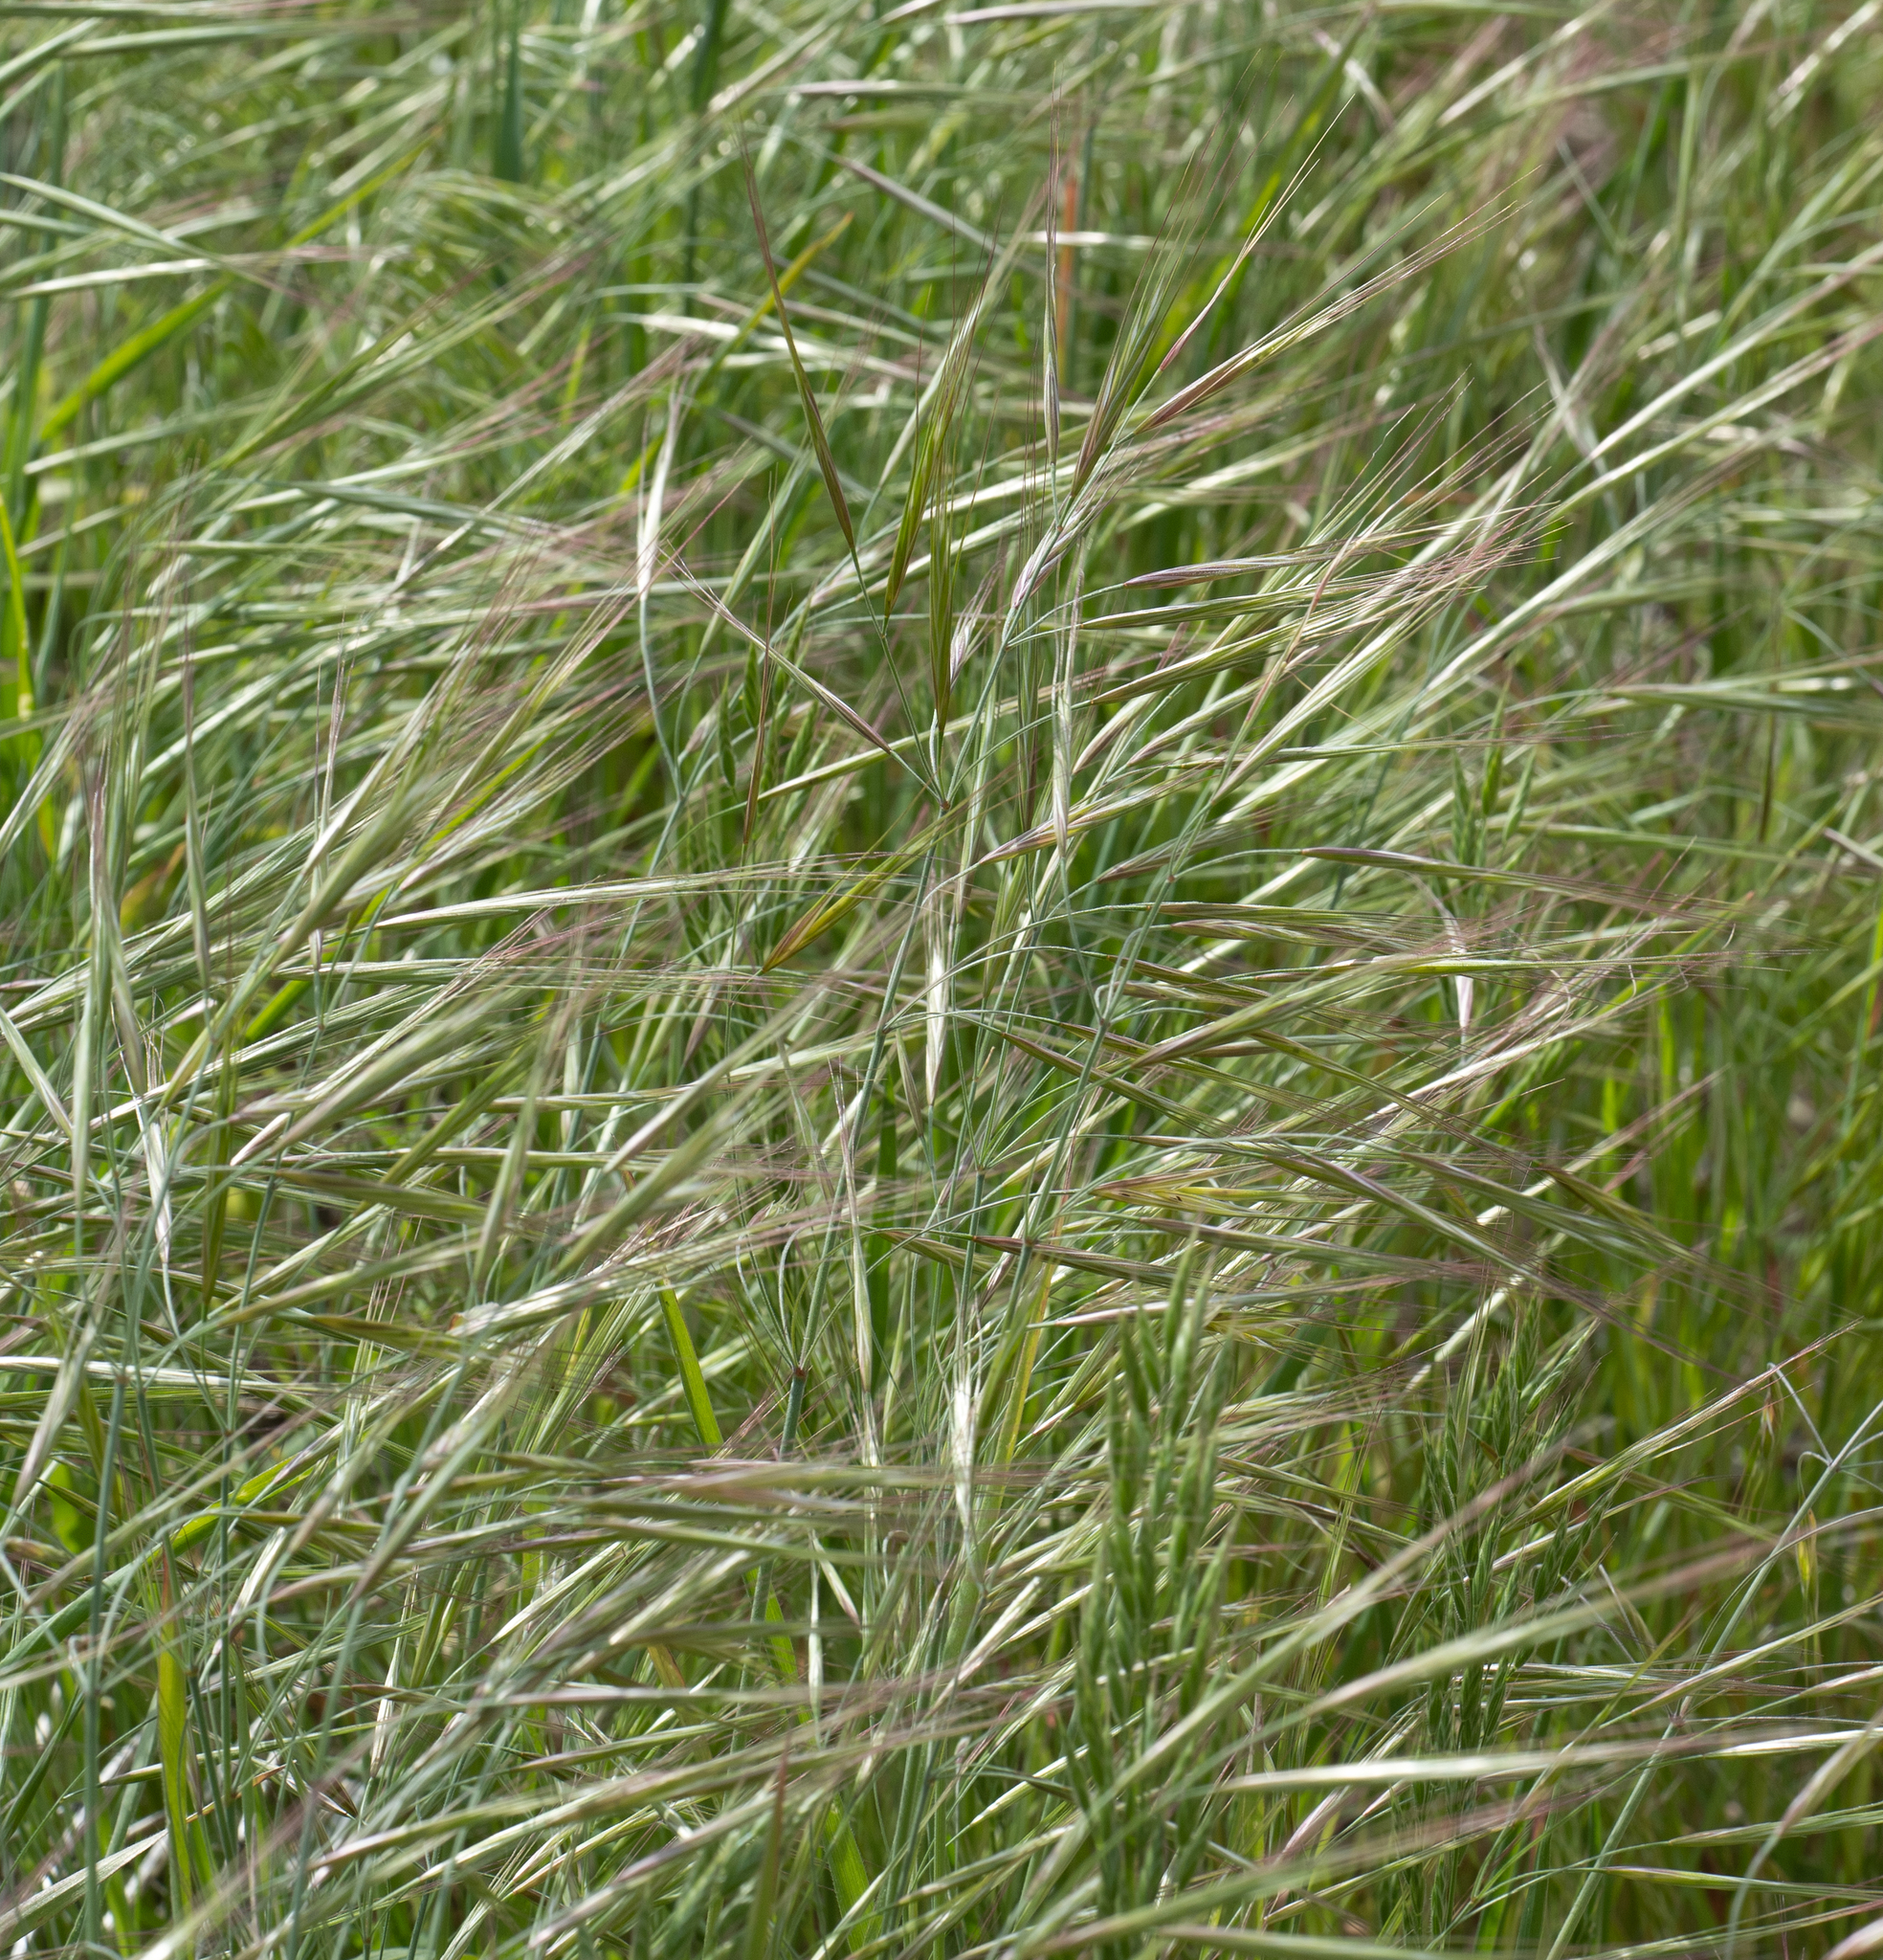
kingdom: Plantae
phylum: Tracheophyta
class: Liliopsida
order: Poales
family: Poaceae
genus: Bromus
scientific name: Bromus diandrus
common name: Ripgut brome
